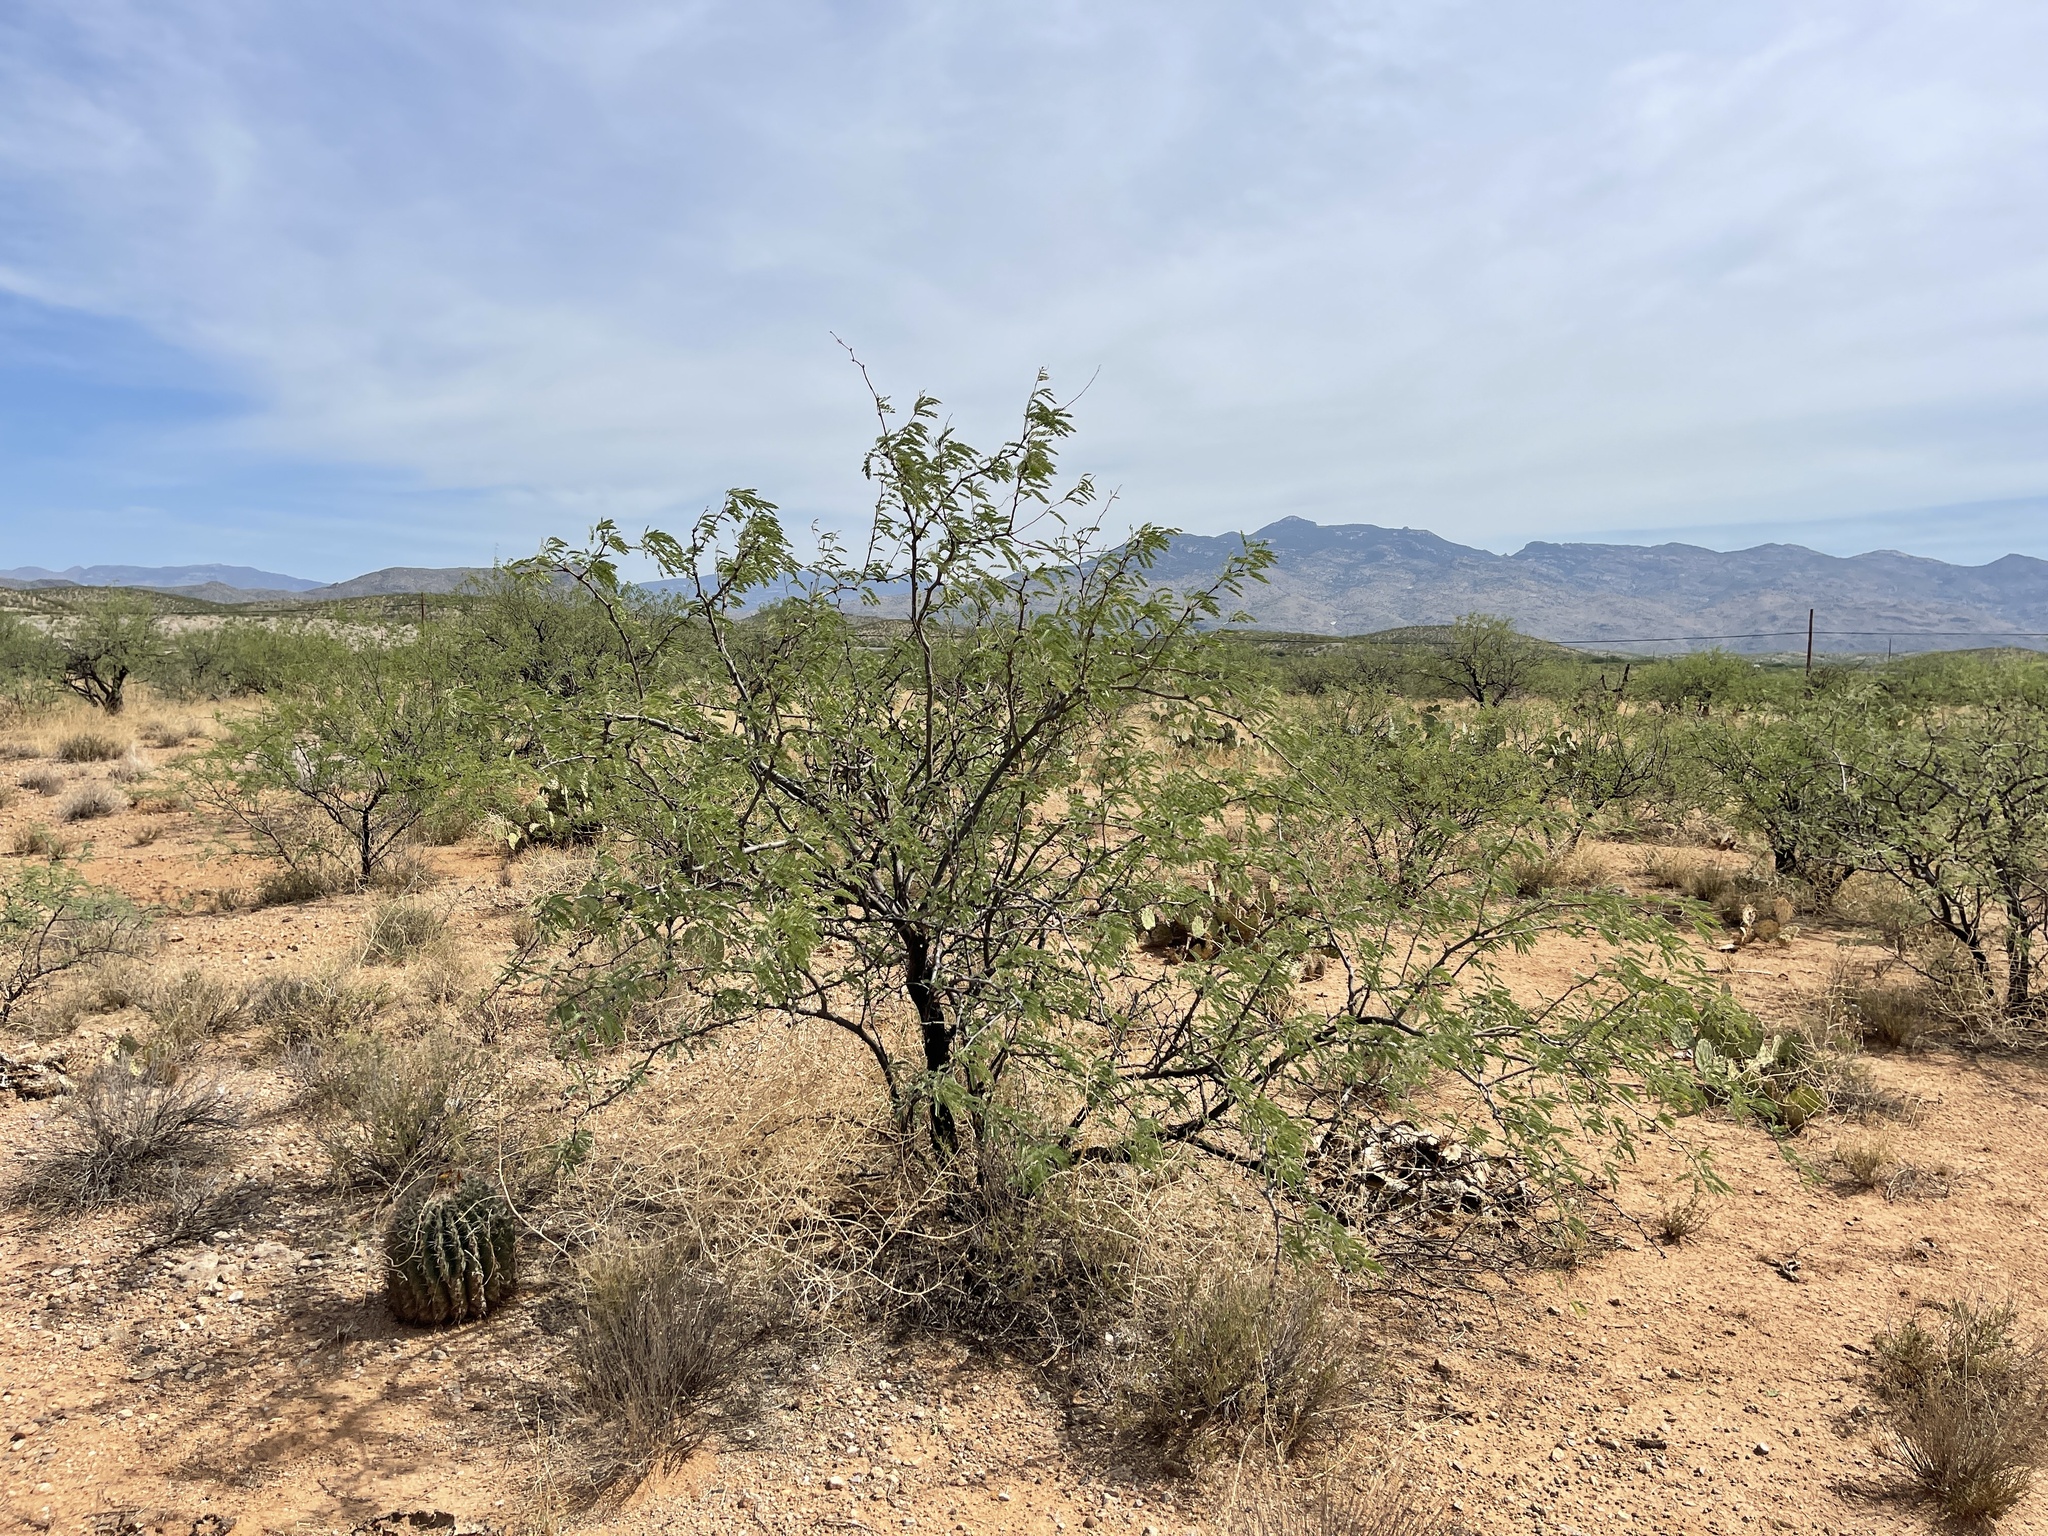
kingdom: Plantae
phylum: Tracheophyta
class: Magnoliopsida
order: Fabales
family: Fabaceae
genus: Prosopis
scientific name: Prosopis velutina
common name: Velvet mesquite
